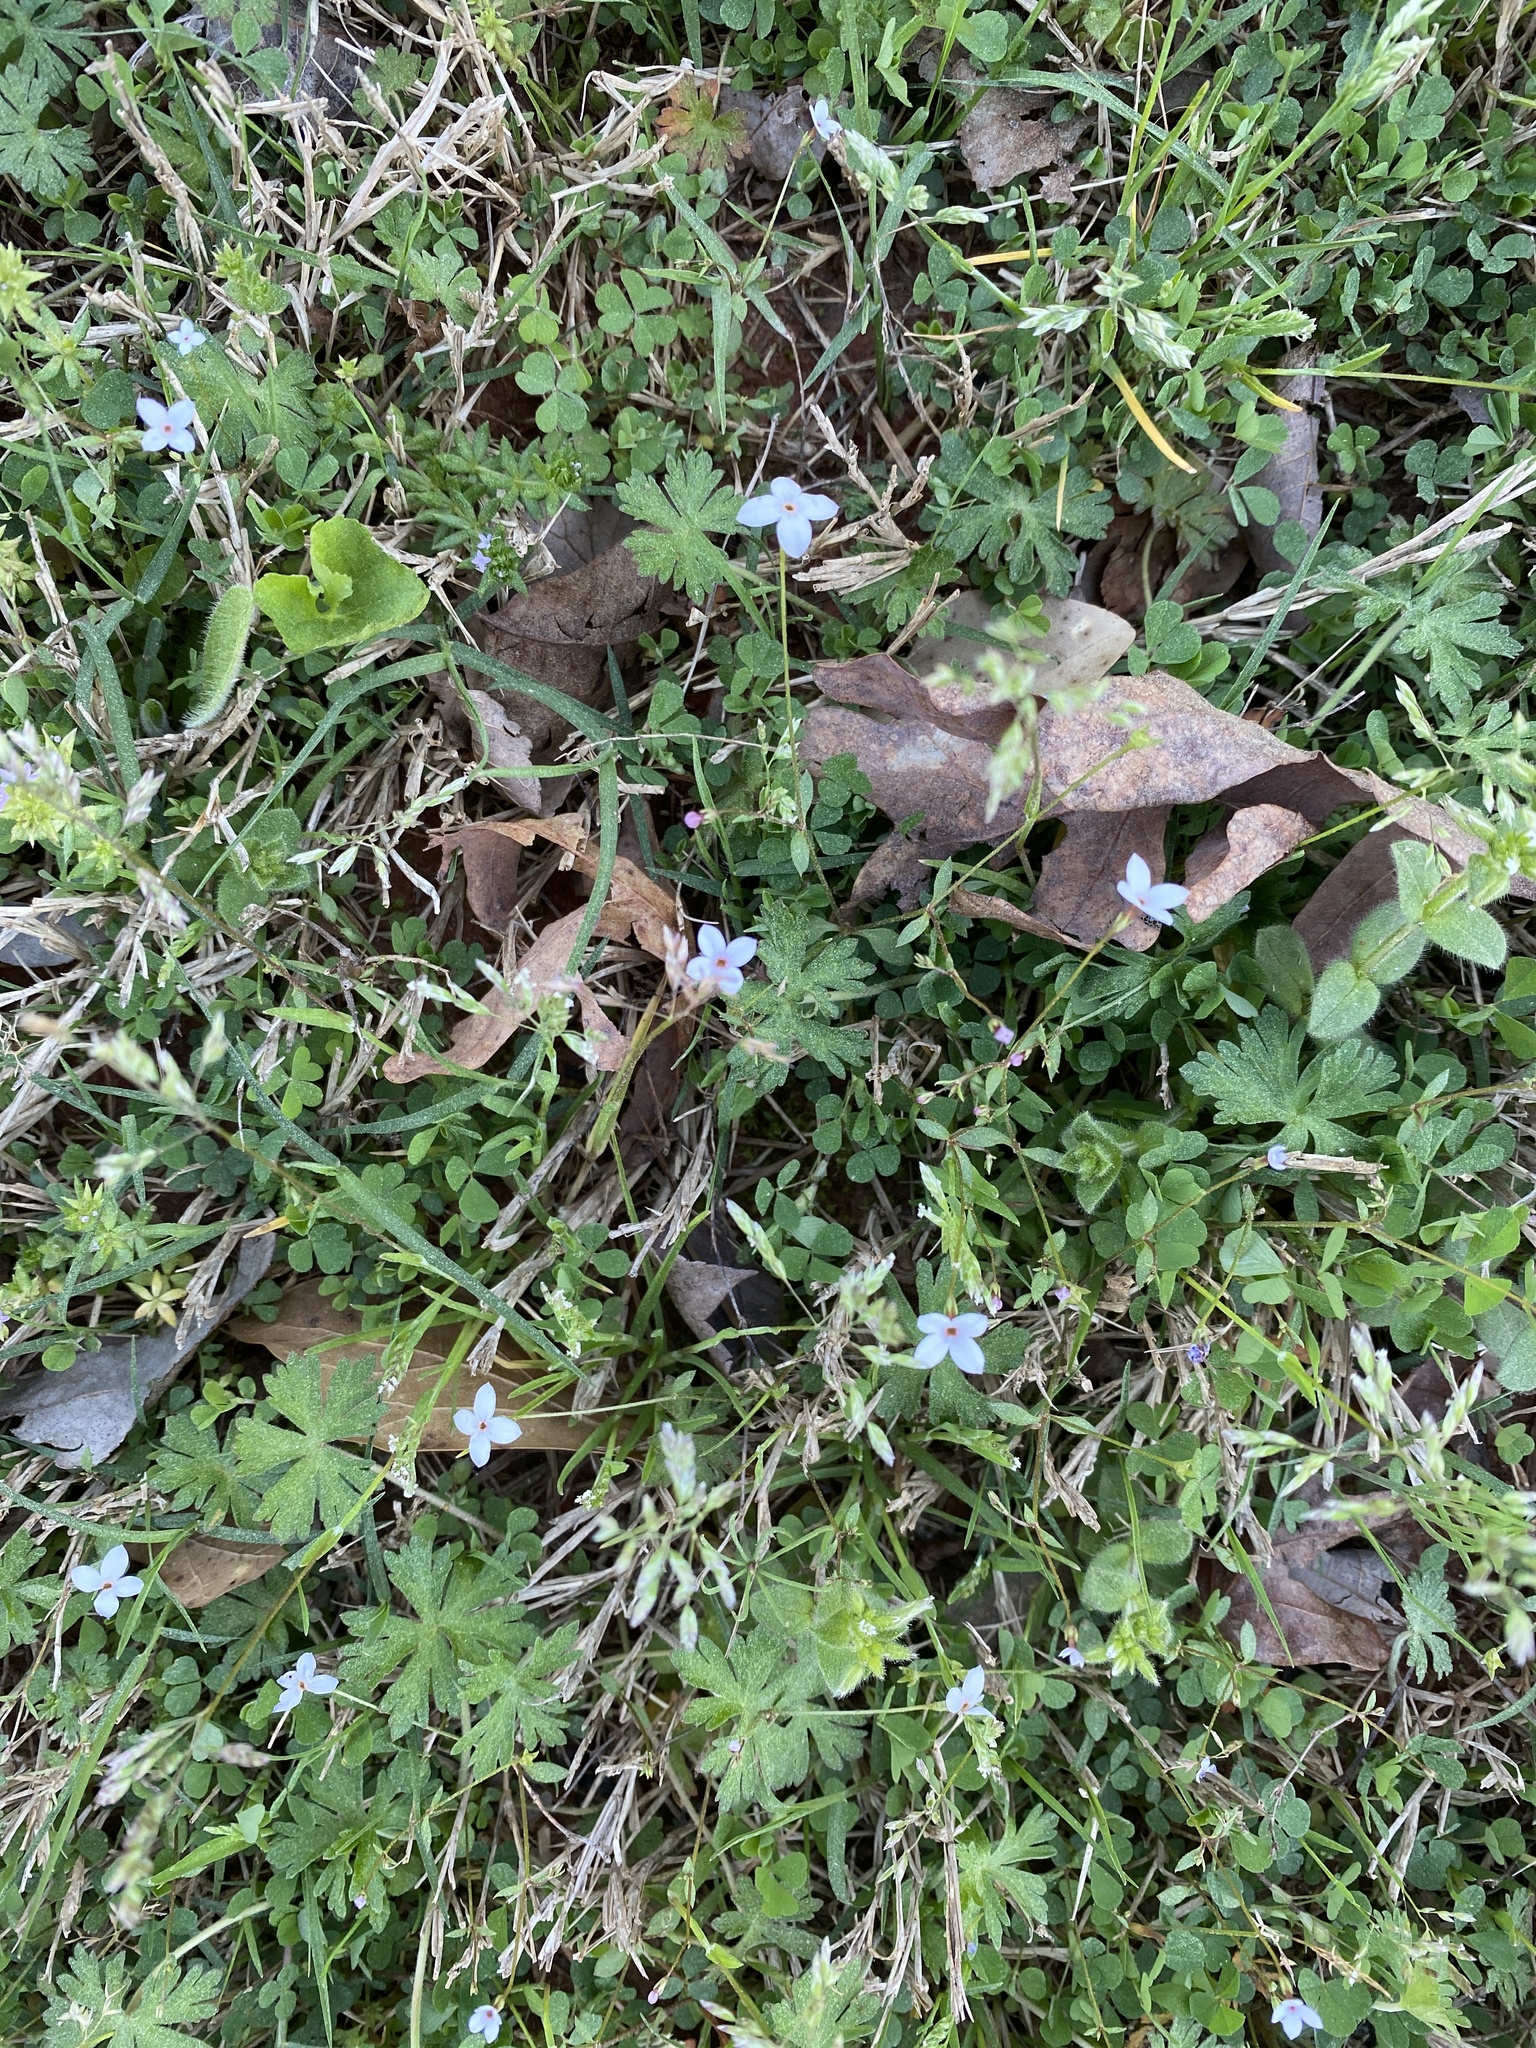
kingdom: Plantae
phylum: Tracheophyta
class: Magnoliopsida
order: Gentianales
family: Rubiaceae
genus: Houstonia
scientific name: Houstonia pusilla
